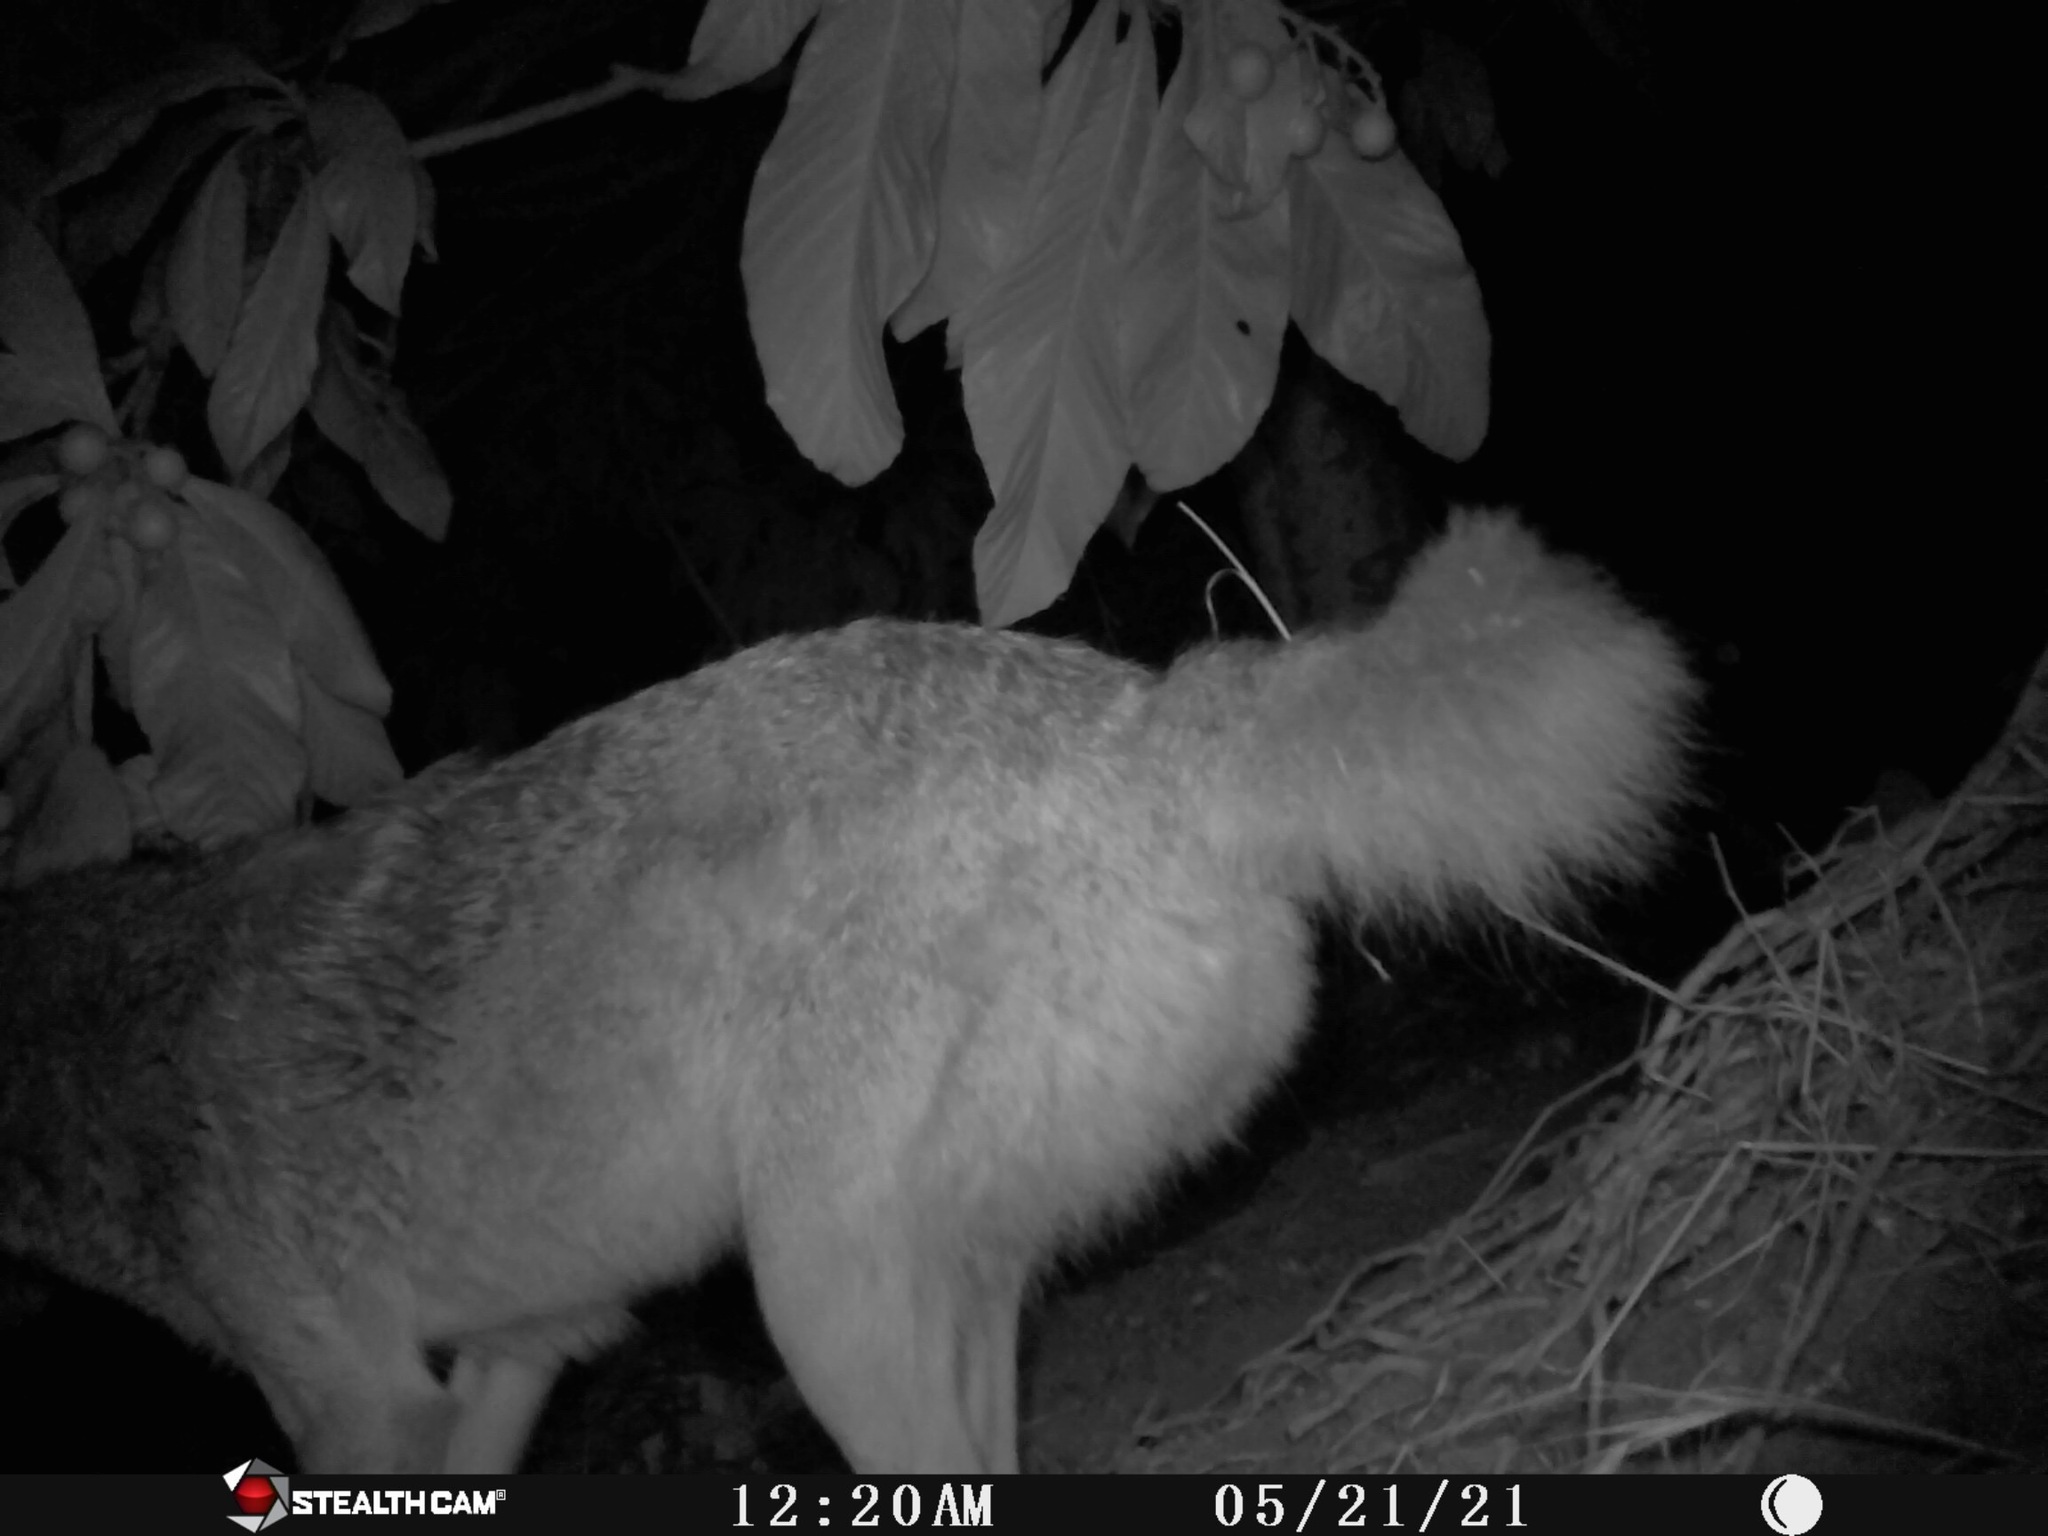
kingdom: Animalia
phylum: Chordata
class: Mammalia
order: Carnivora
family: Canidae
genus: Canis
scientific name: Canis latrans
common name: Coyote
